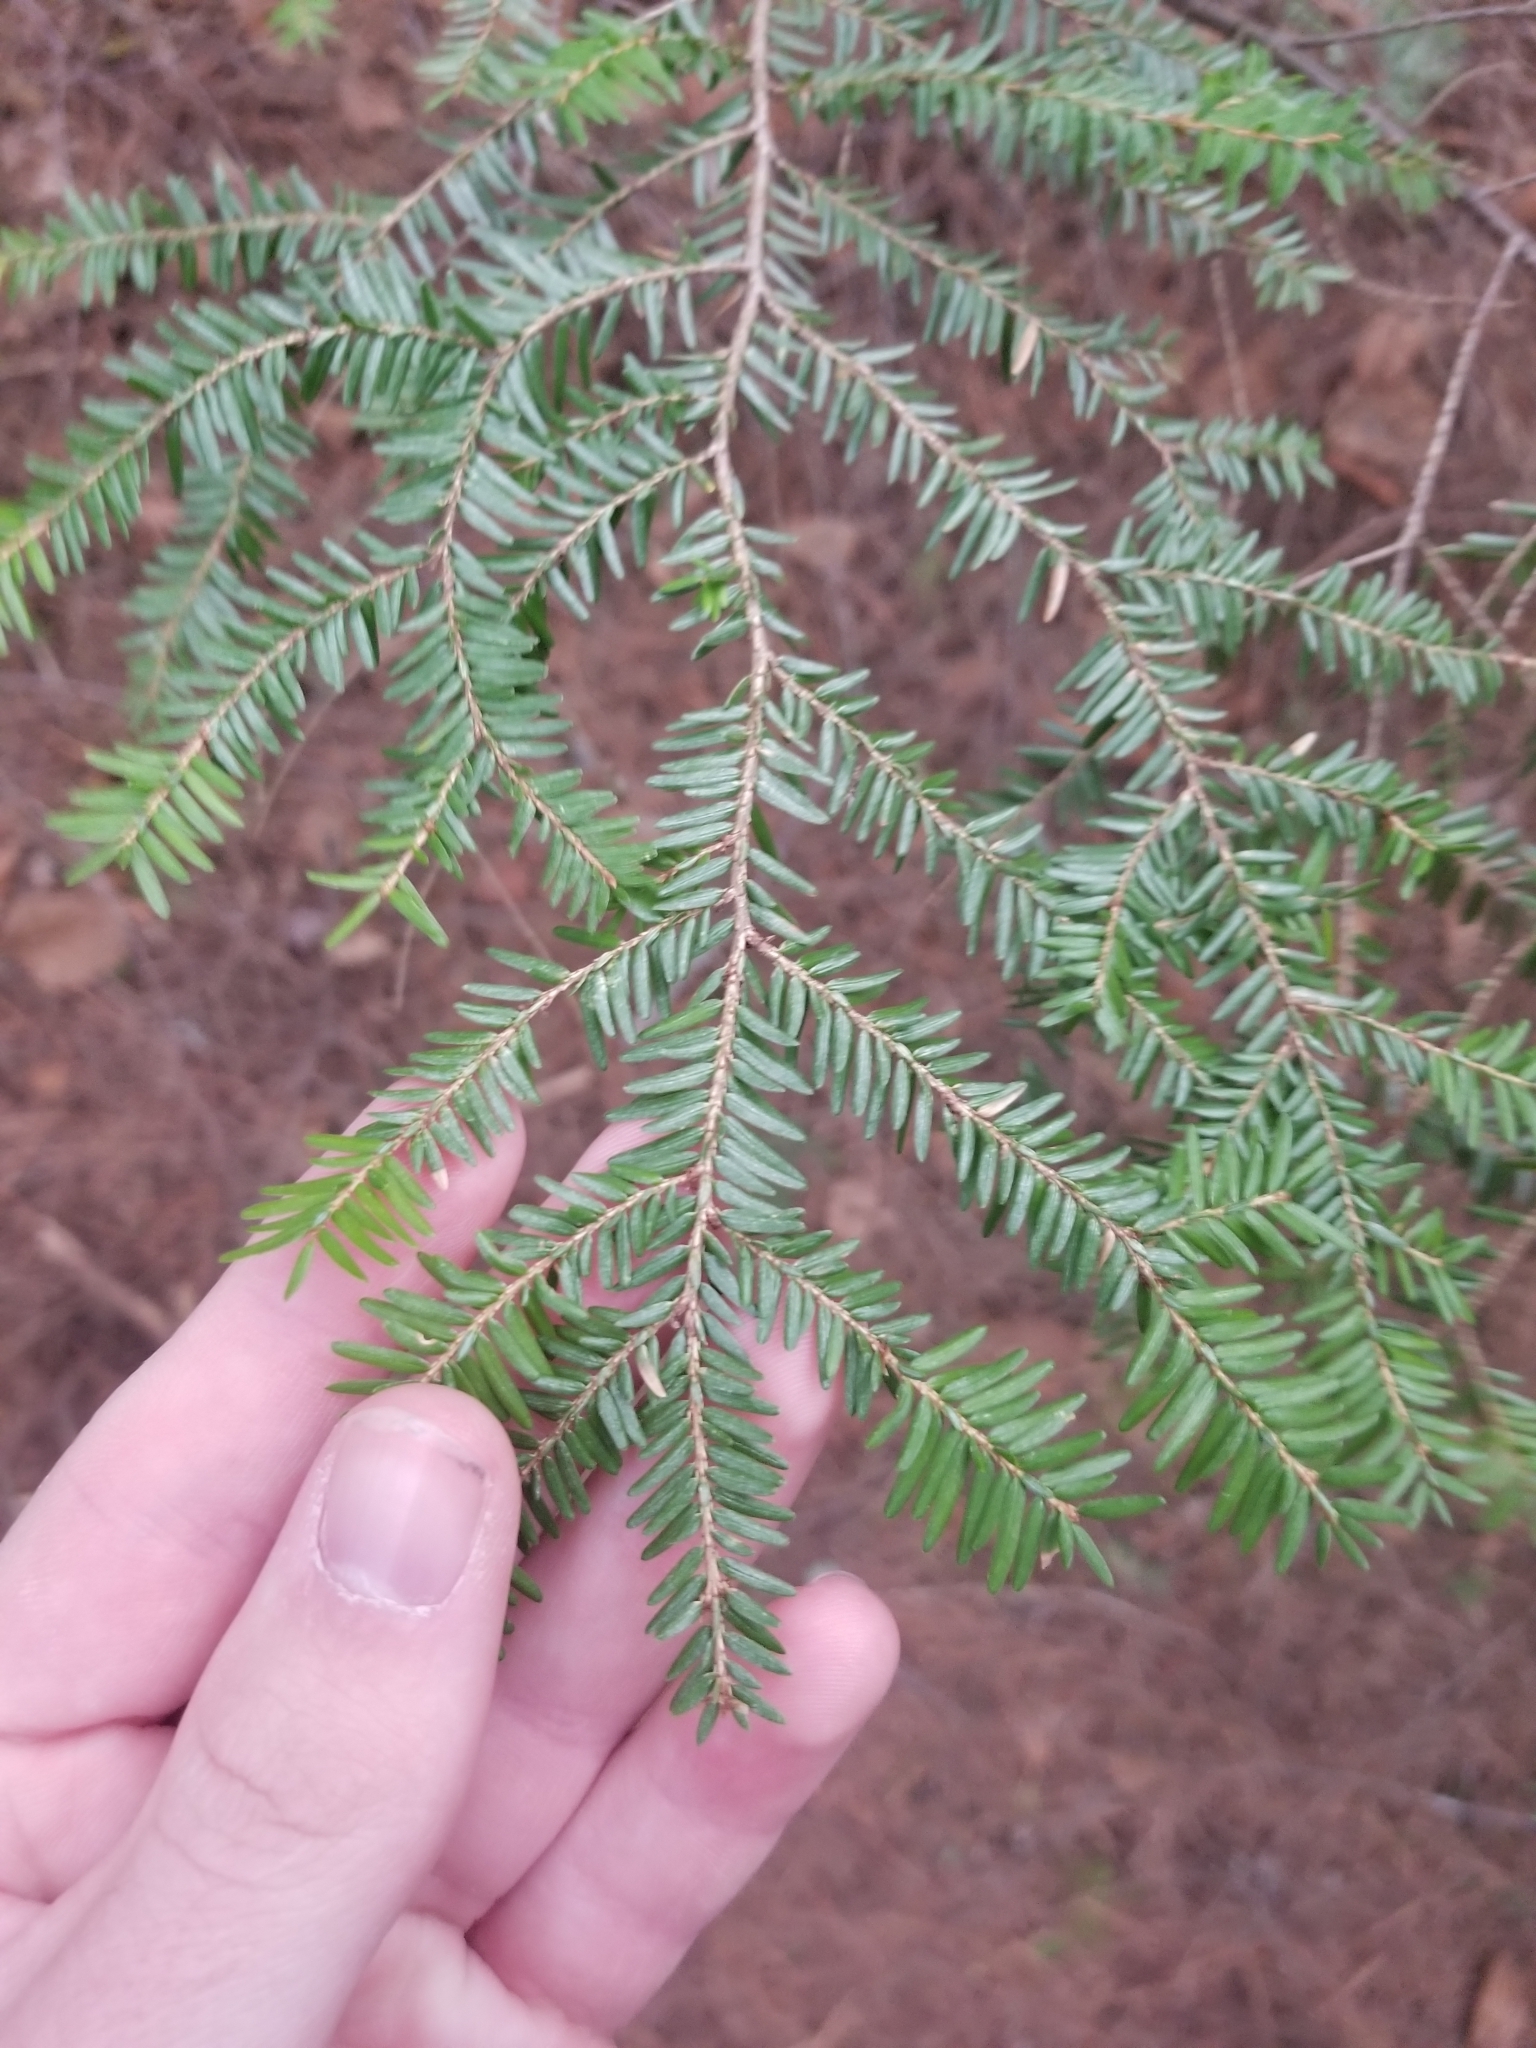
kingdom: Plantae
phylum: Tracheophyta
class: Pinopsida
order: Pinales
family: Pinaceae
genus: Tsuga
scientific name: Tsuga canadensis
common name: Eastern hemlock
